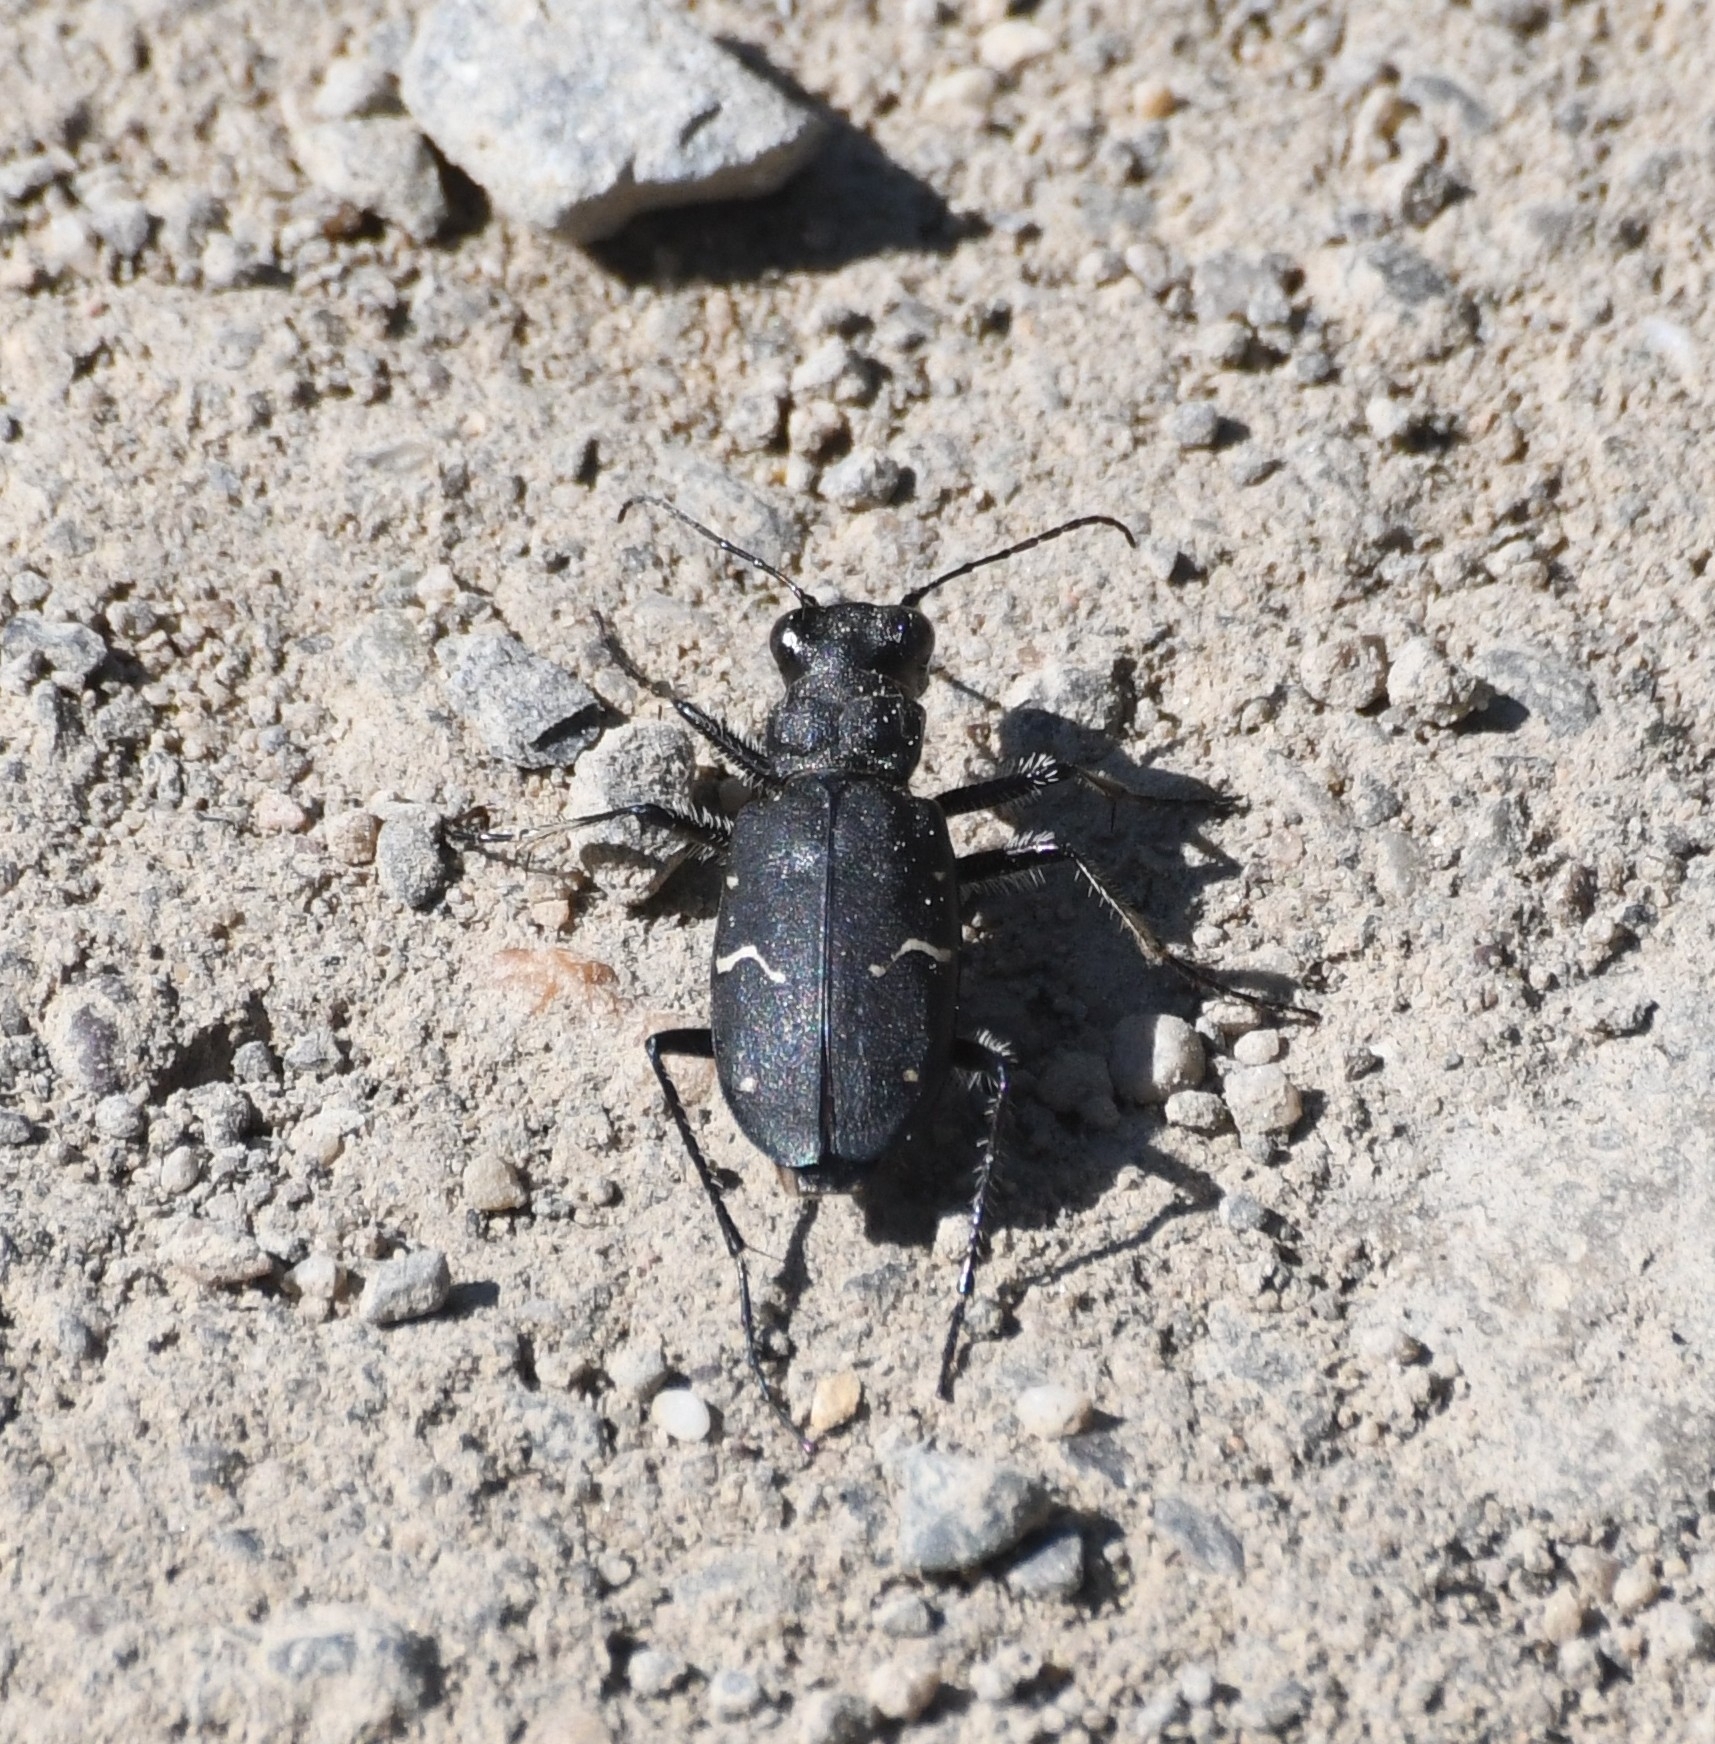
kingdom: Animalia
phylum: Arthropoda
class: Insecta
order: Coleoptera
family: Carabidae
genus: Cicindela
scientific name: Cicindela longilabris
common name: Boreal long-lipped tiger beetle
